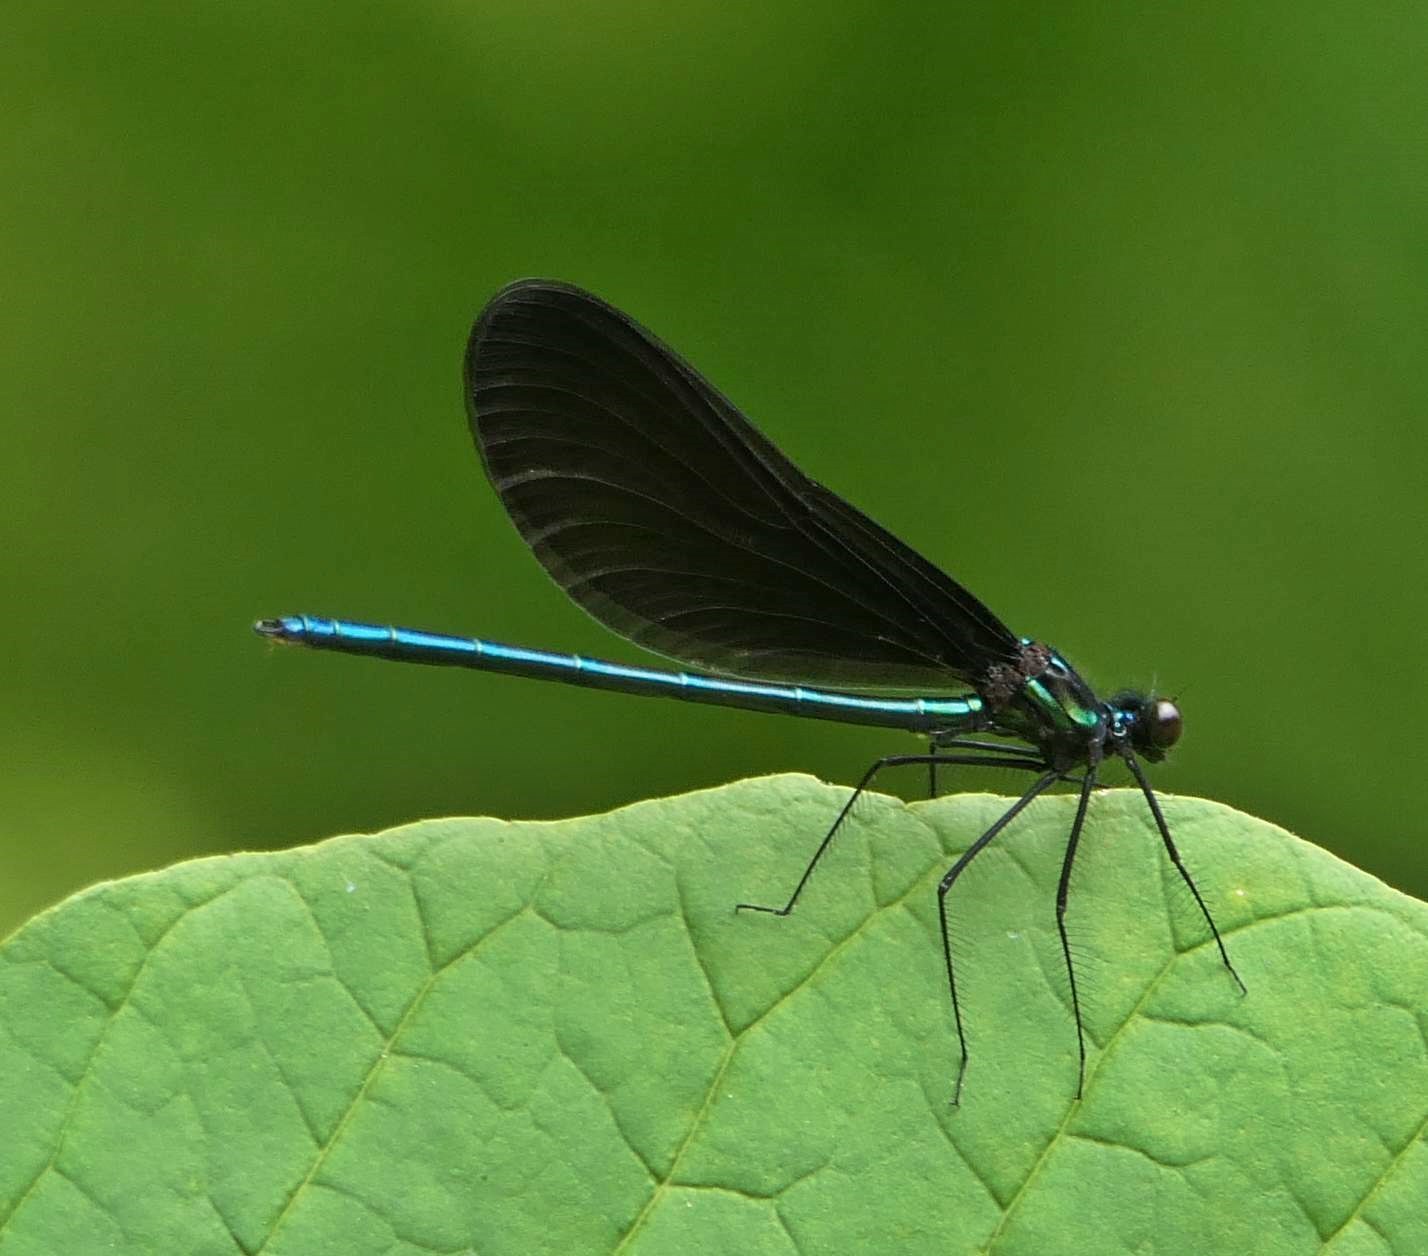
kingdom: Animalia
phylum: Arthropoda
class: Insecta
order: Odonata
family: Calopterygidae
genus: Calopteryx
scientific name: Calopteryx maculata
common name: Ebony jewelwing
